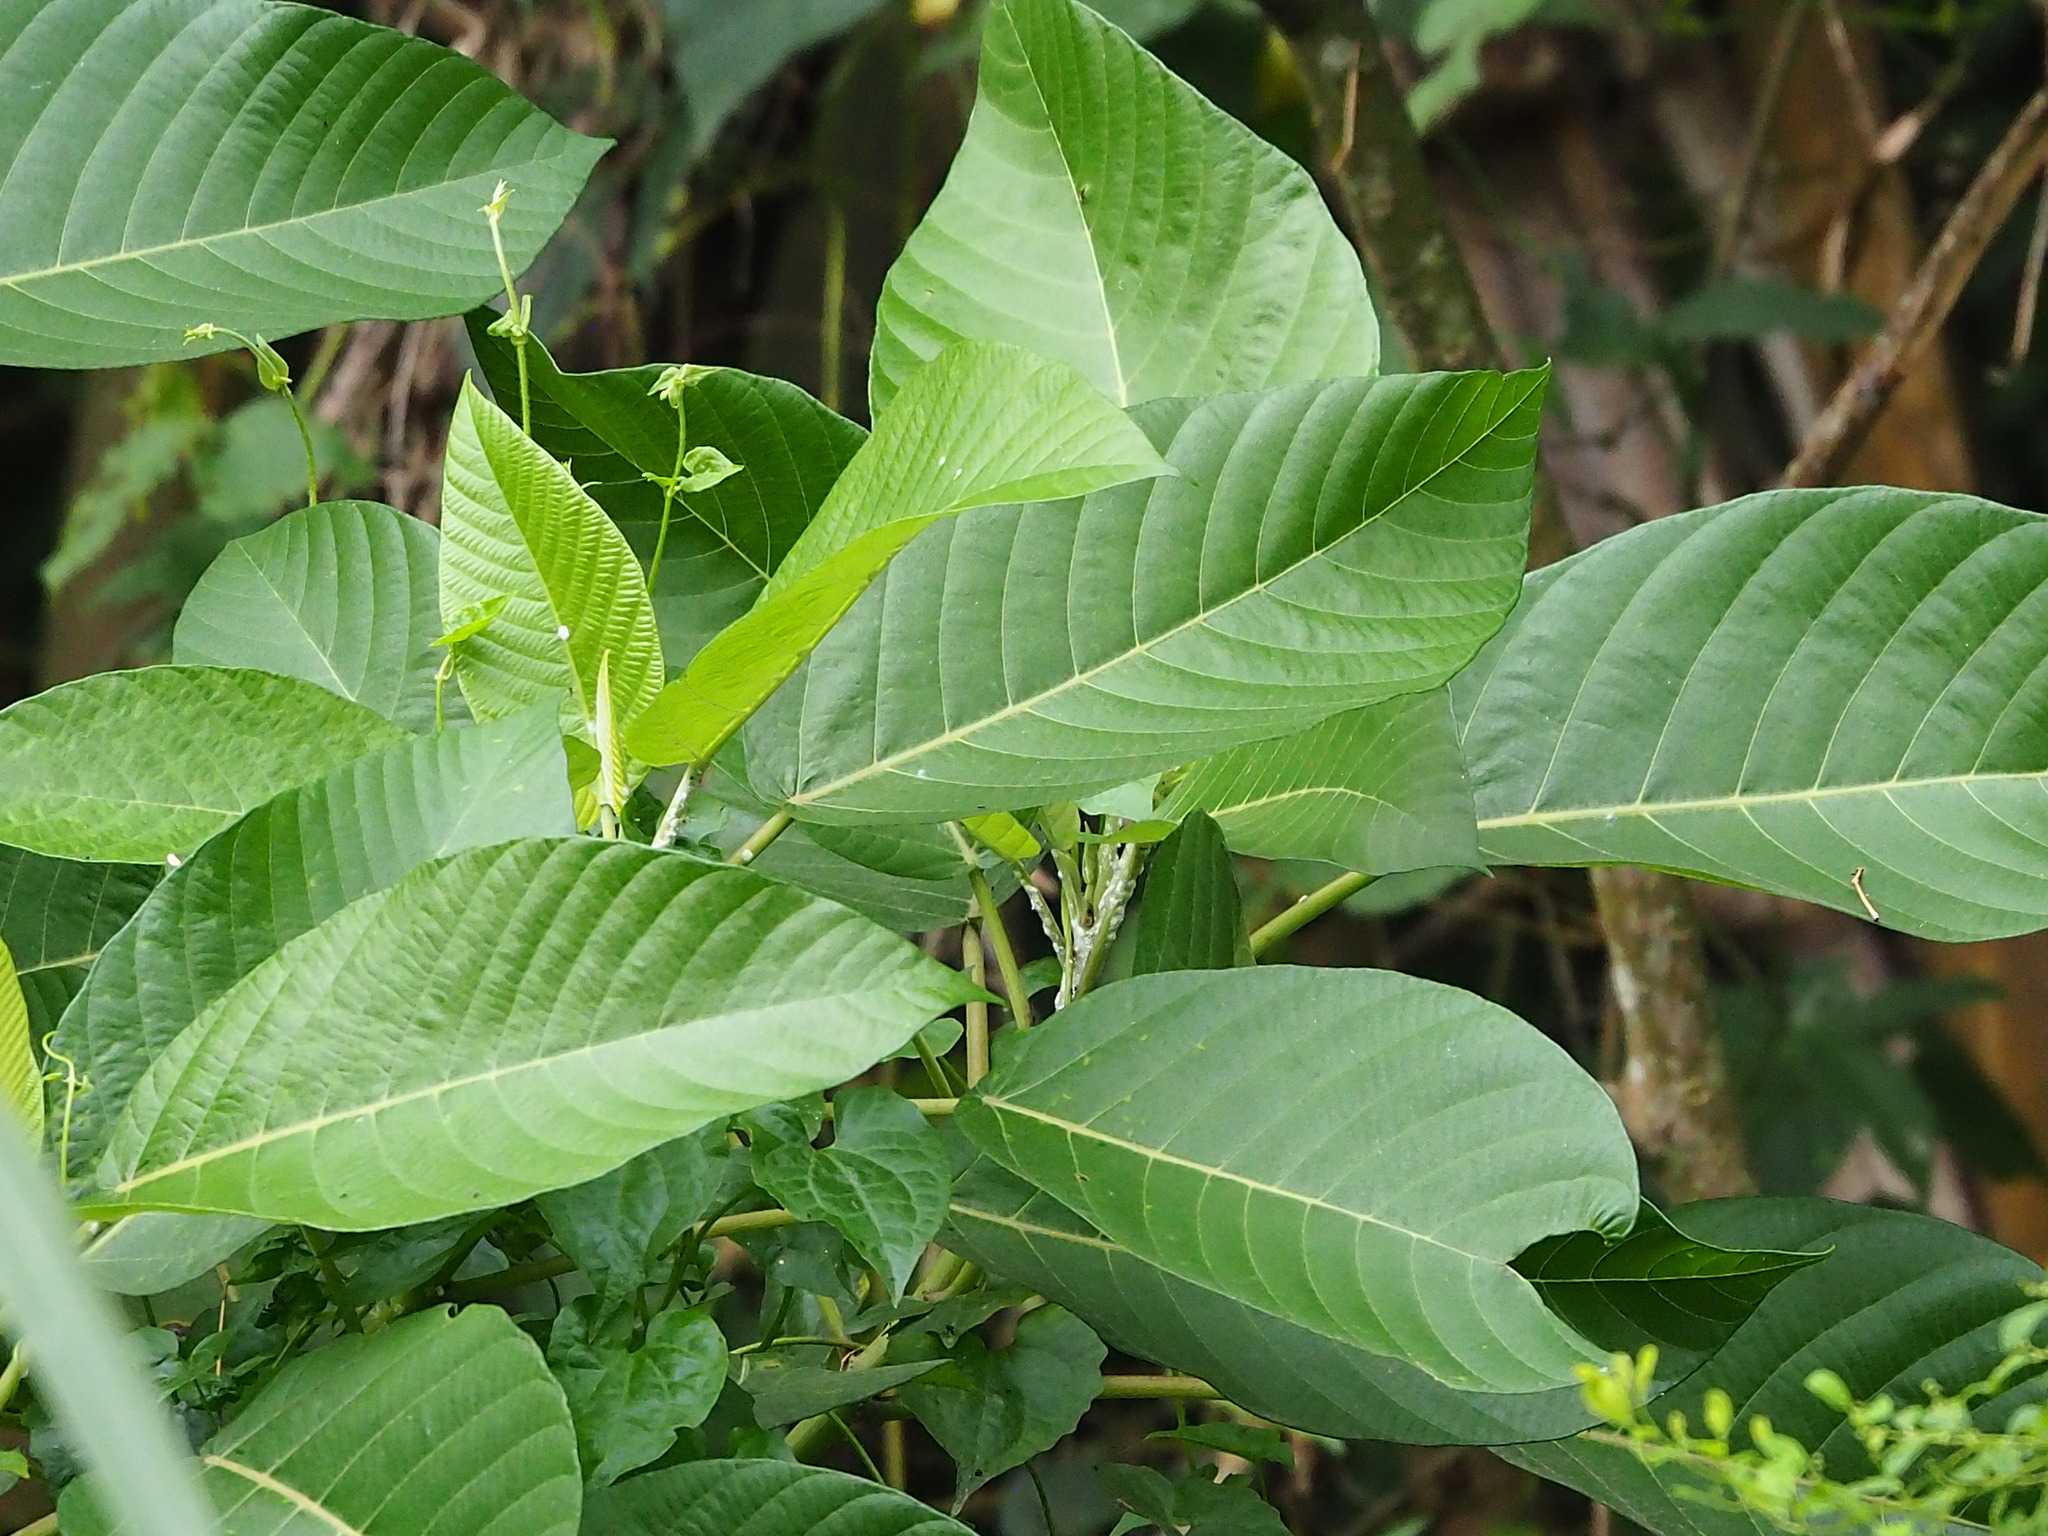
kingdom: Plantae
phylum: Tracheophyta
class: Magnoliopsida
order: Rosales
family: Urticaceae
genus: Dendrocnide
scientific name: Dendrocnide meyeniana
